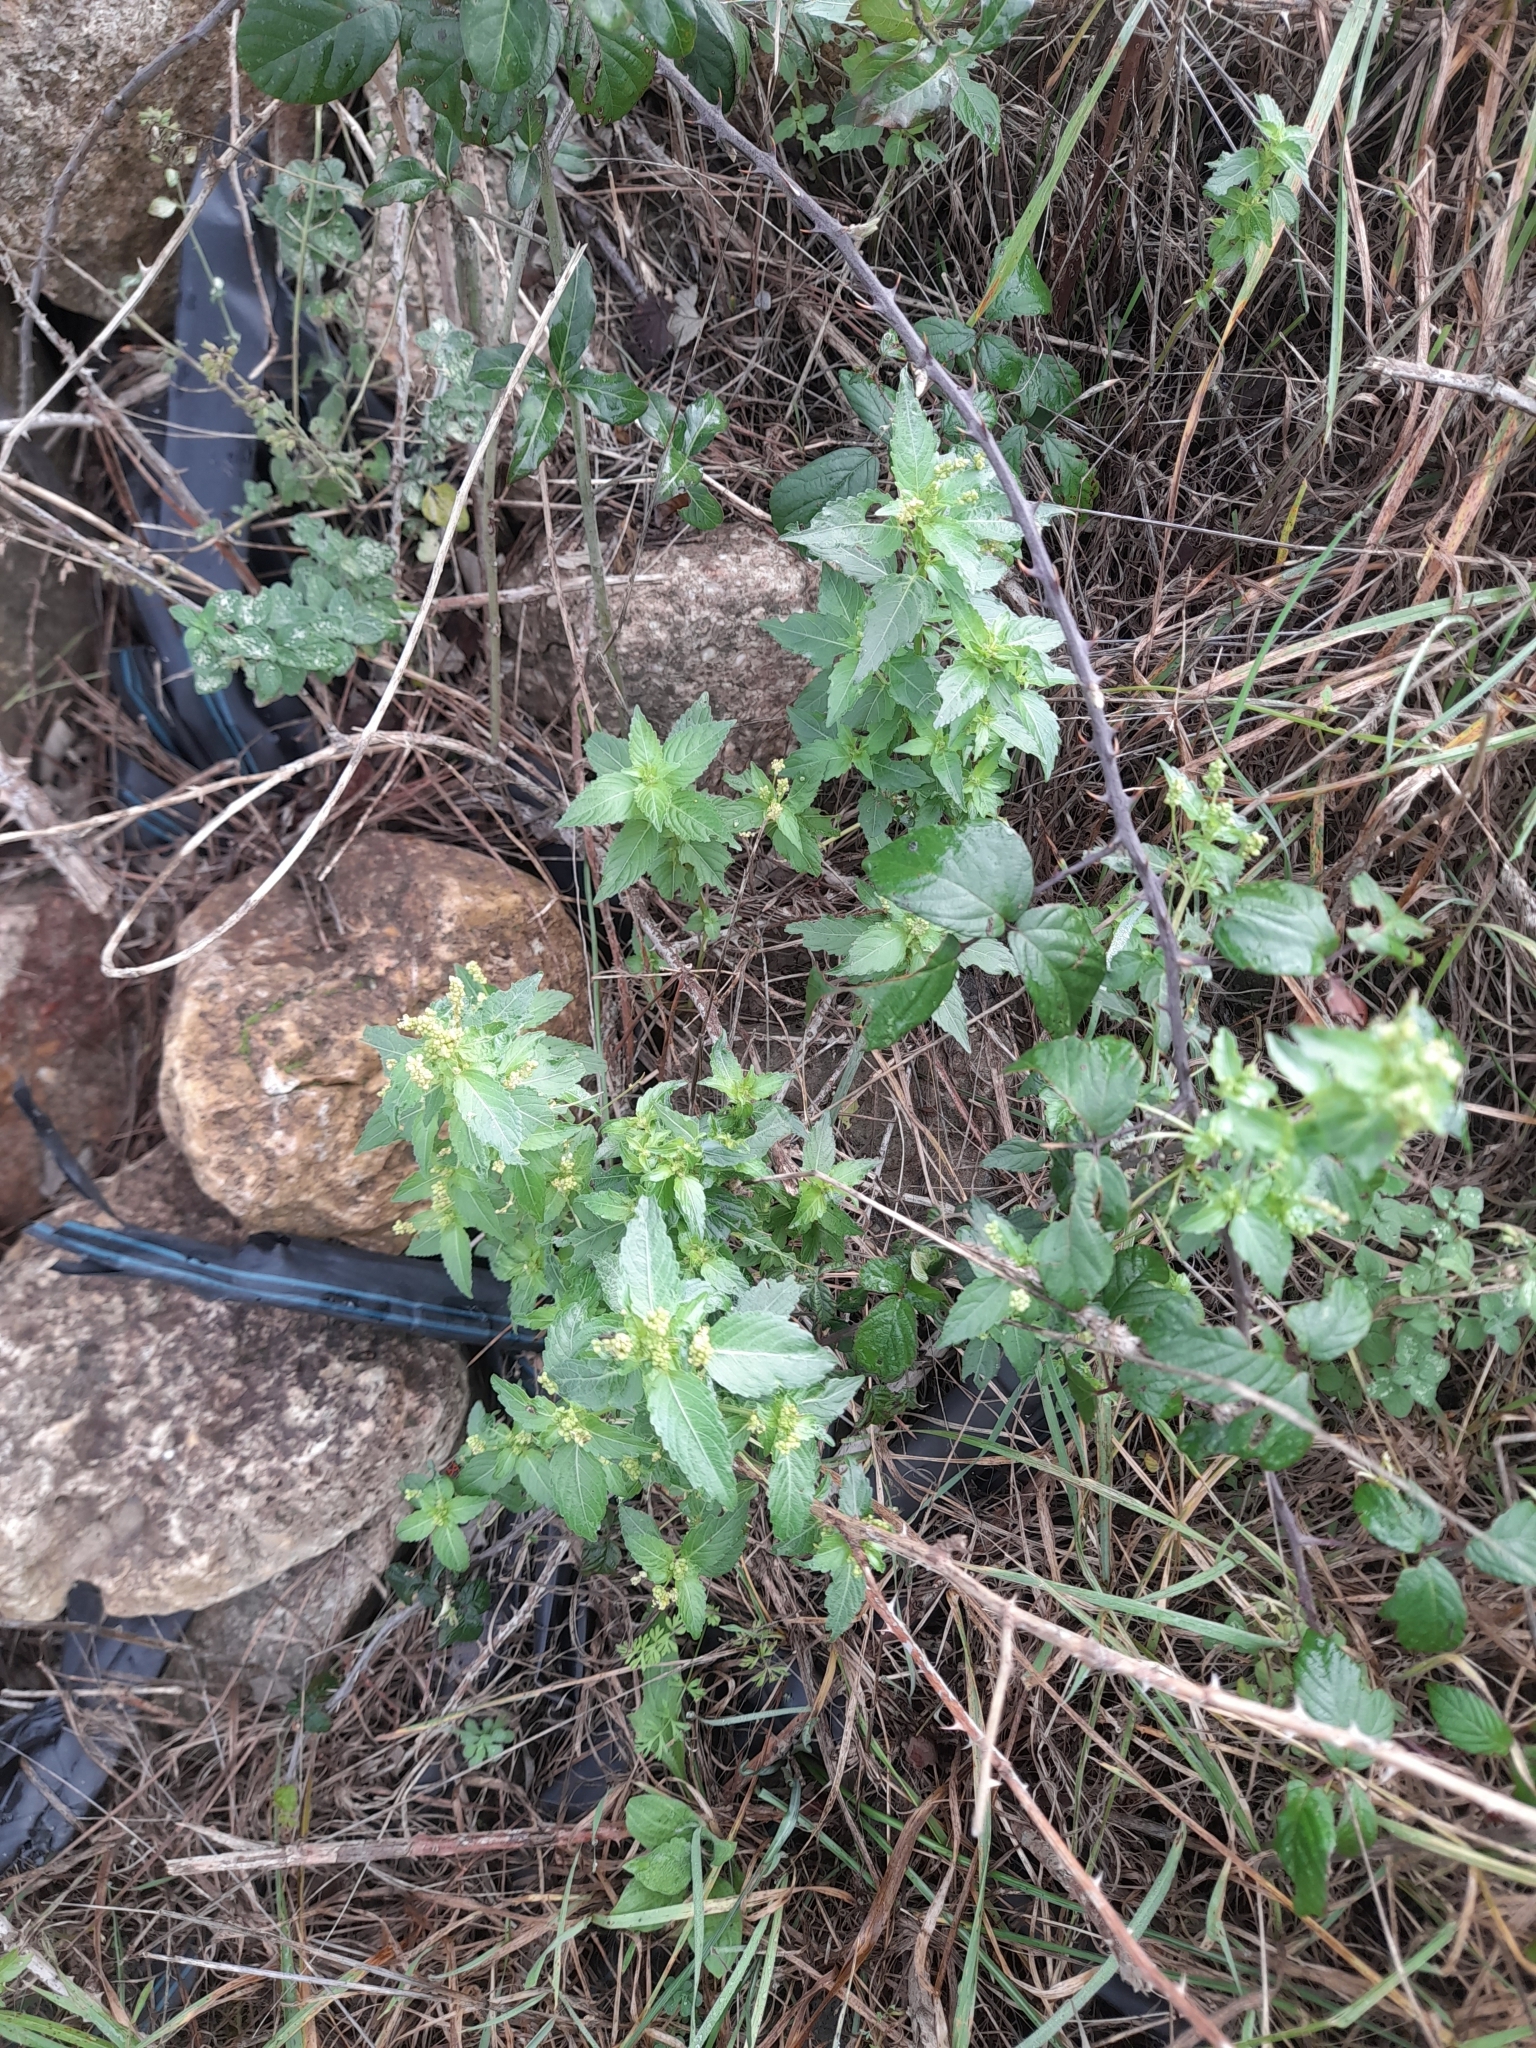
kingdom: Plantae
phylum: Tracheophyta
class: Magnoliopsida
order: Malpighiales
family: Euphorbiaceae
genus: Mercurialis
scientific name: Mercurialis annua
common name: Annual mercury
